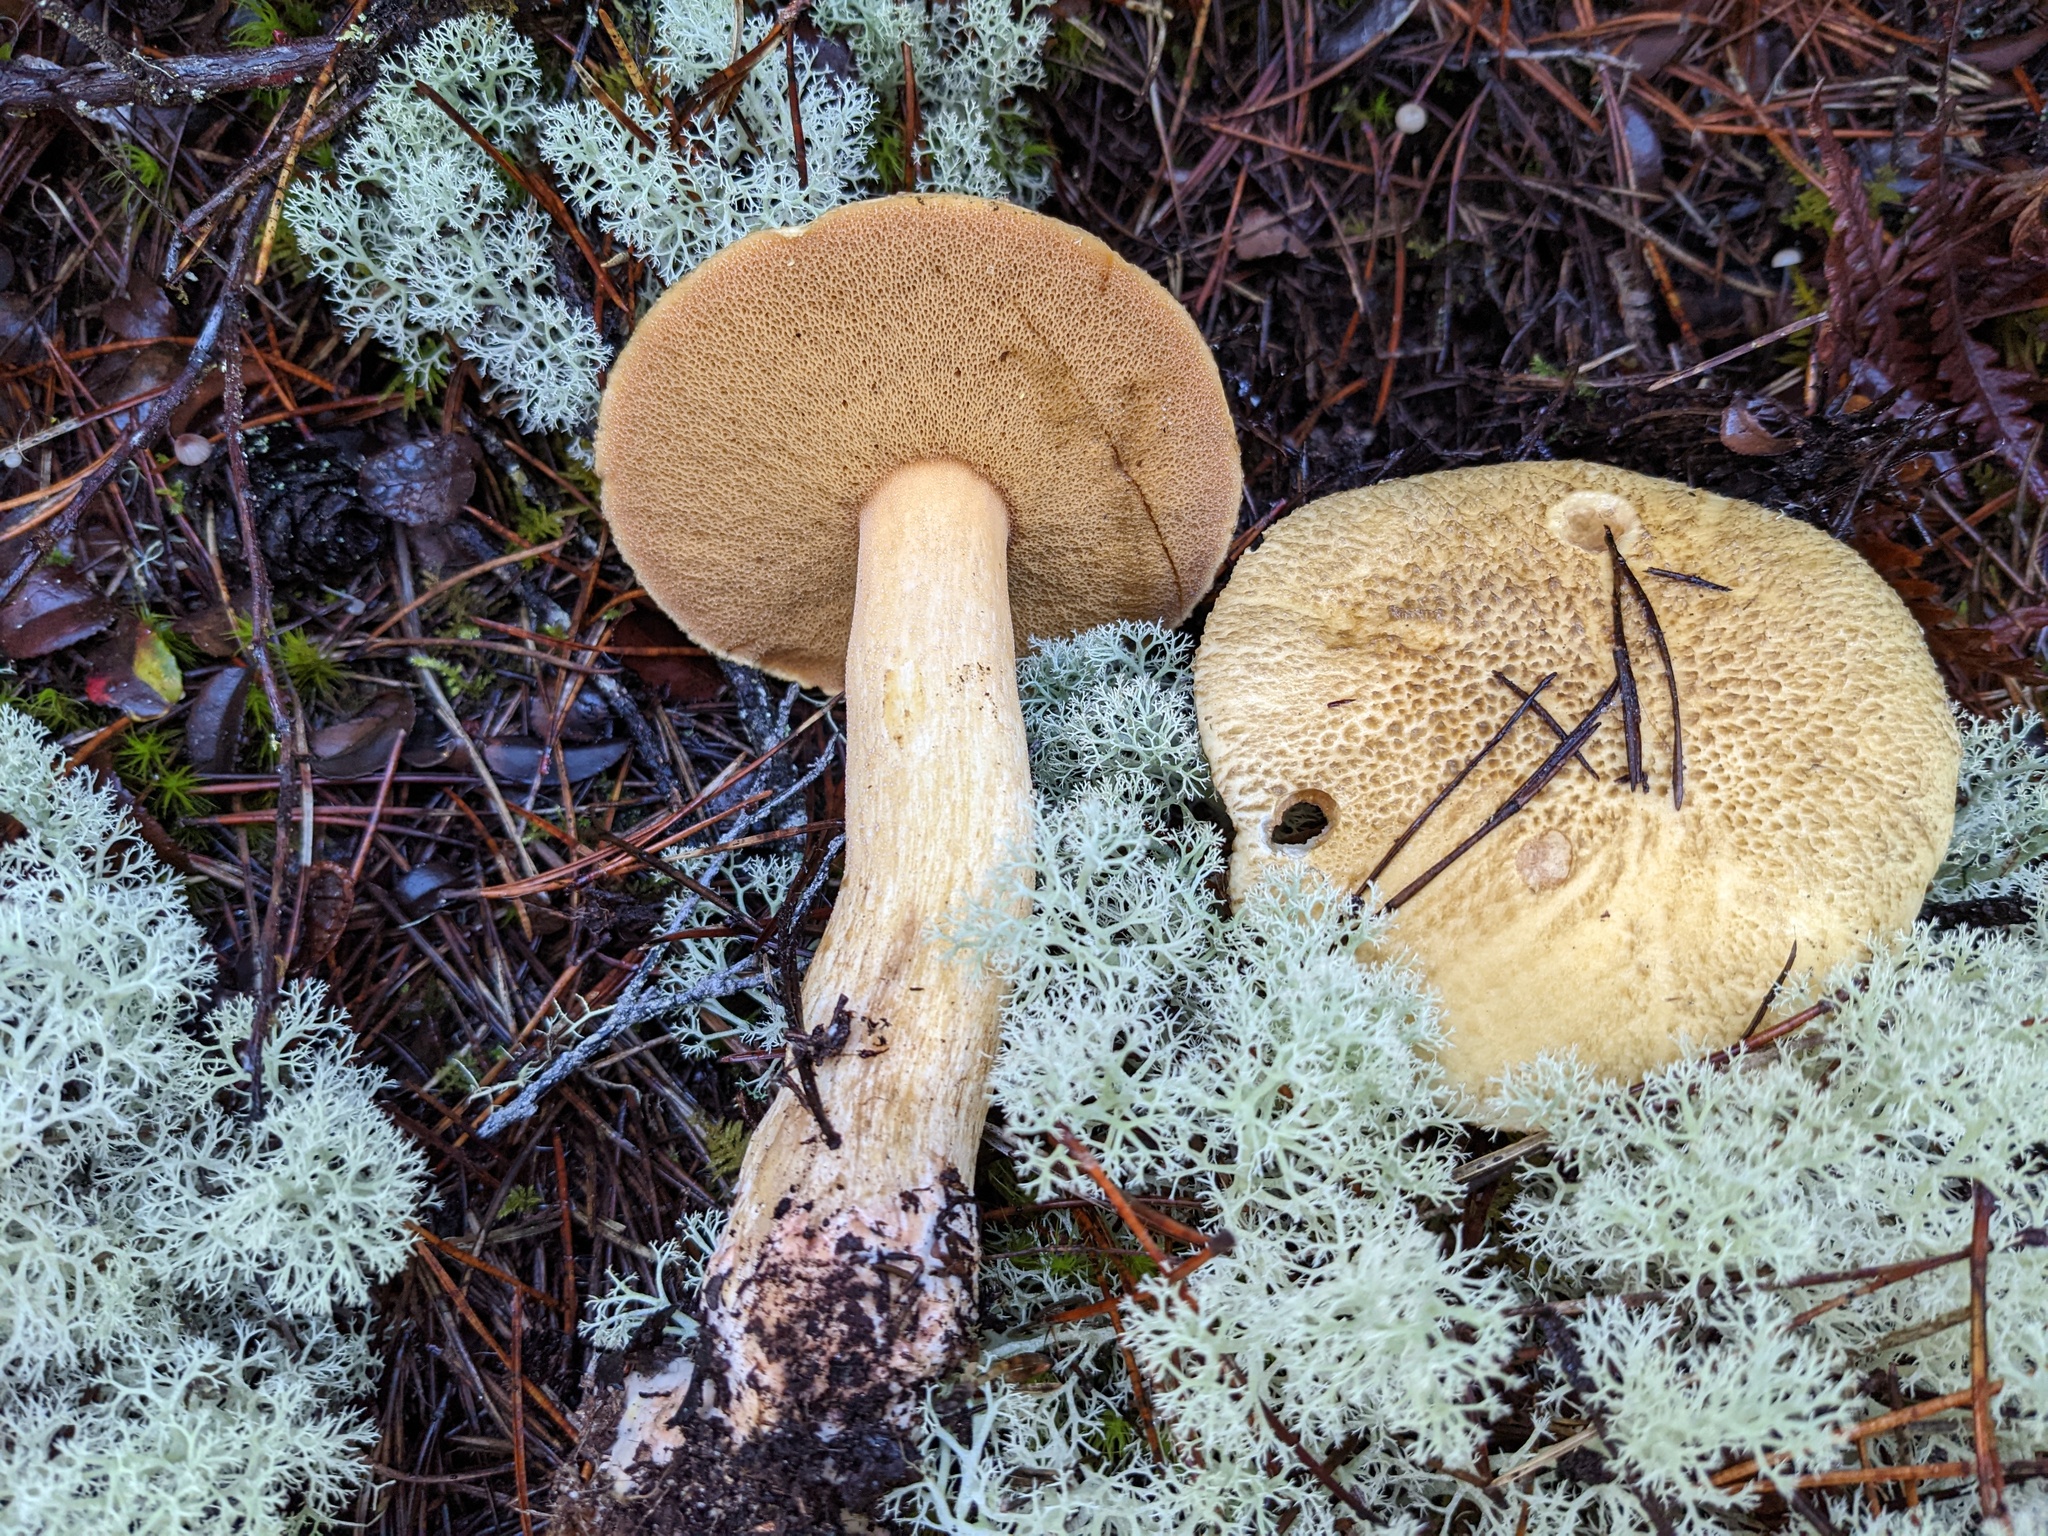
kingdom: Fungi
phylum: Basidiomycota
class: Agaricomycetes
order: Boletales
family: Suillaceae
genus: Suillus
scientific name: Suillus tomentosus
